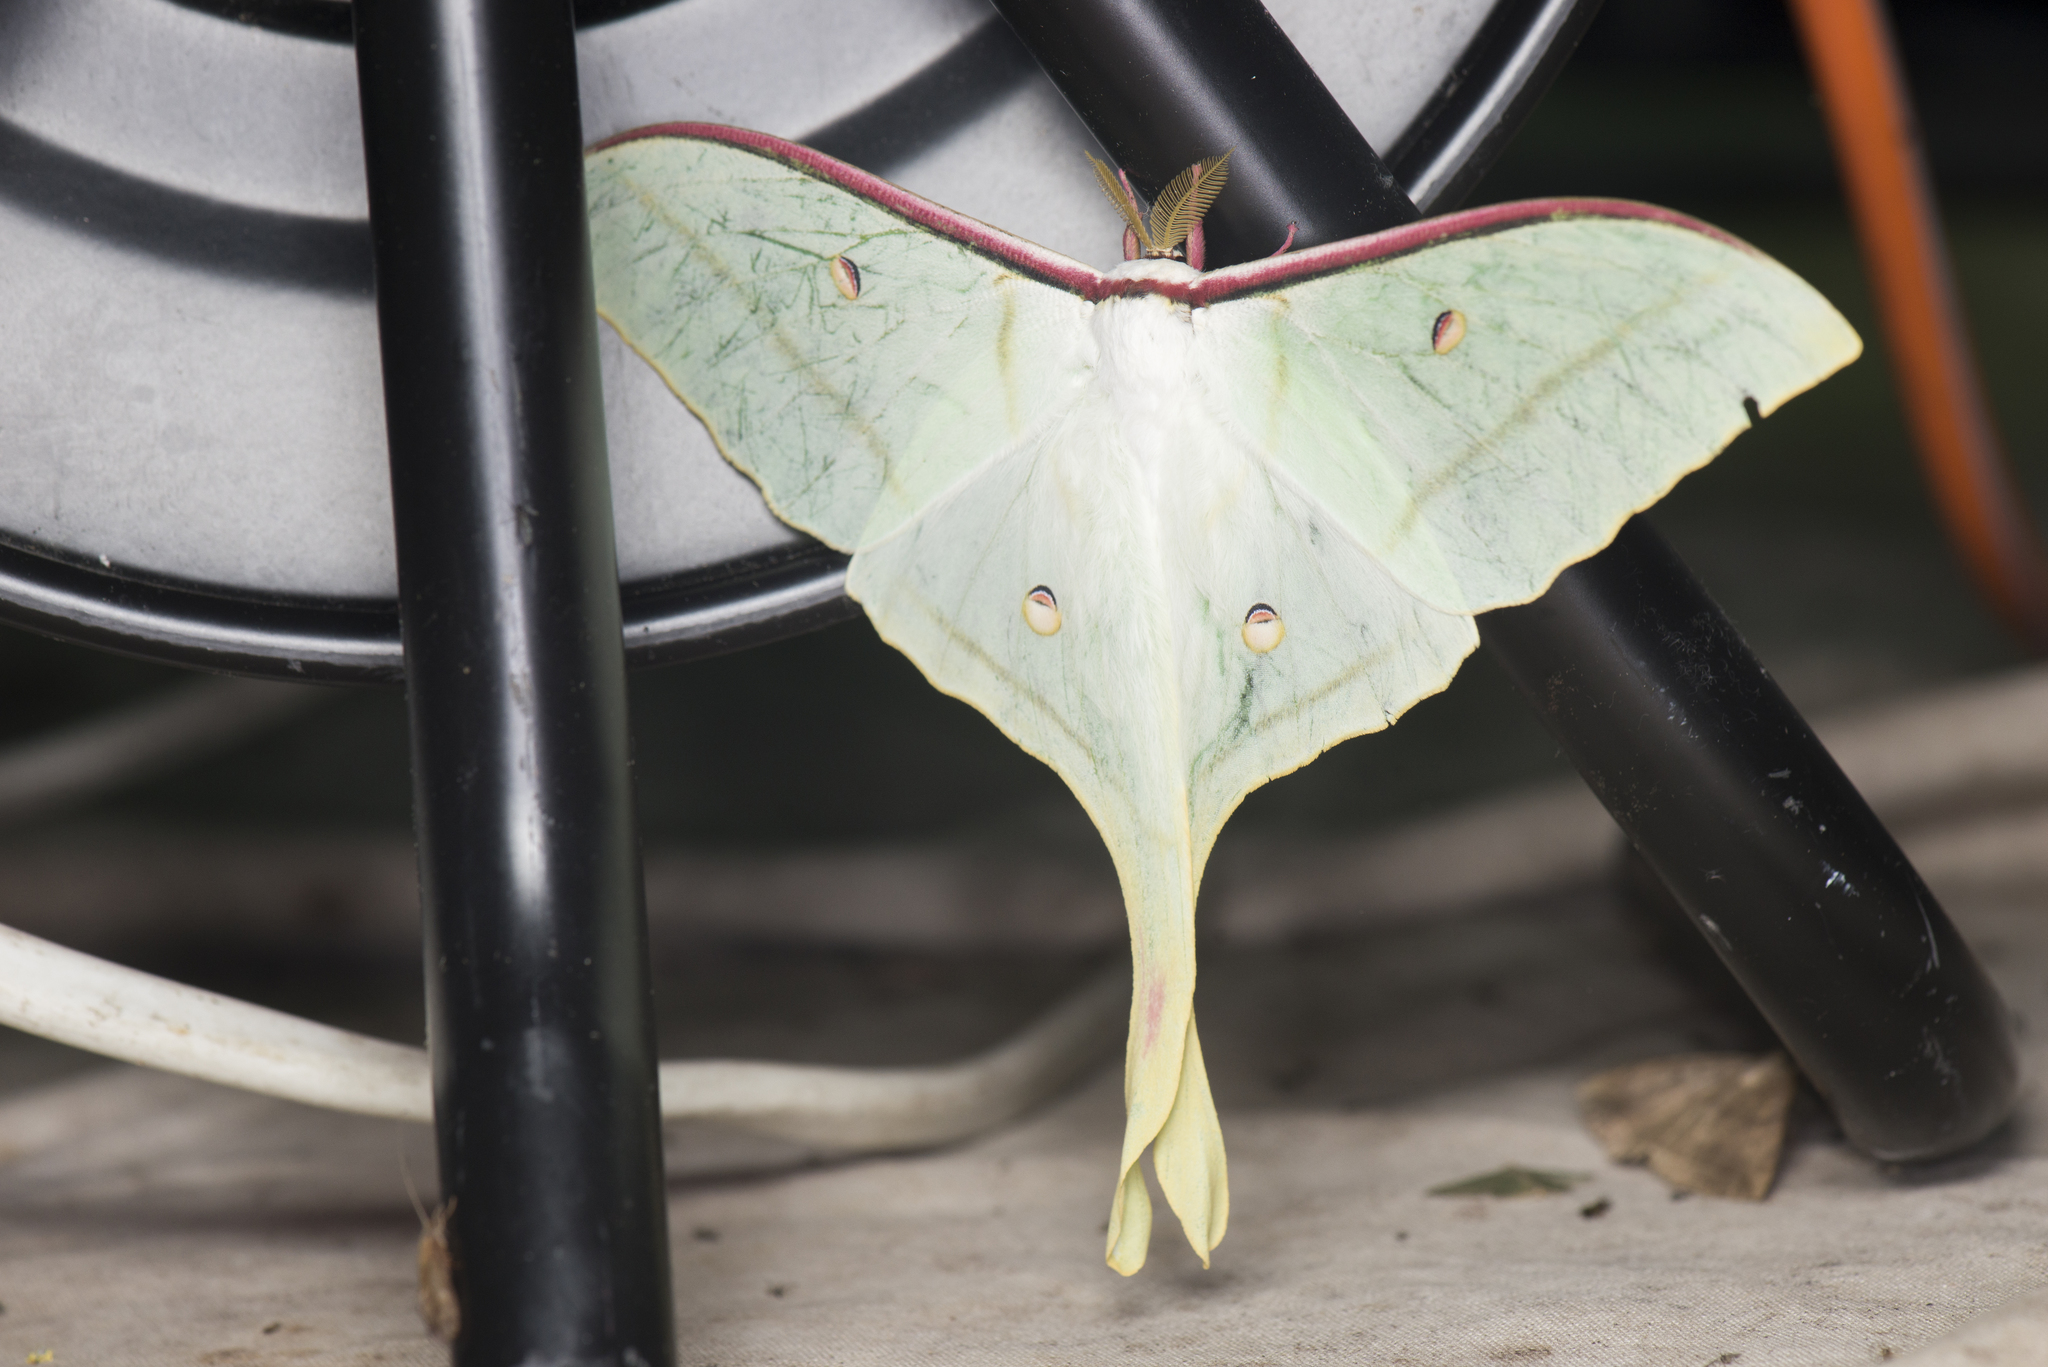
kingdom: Animalia
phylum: Arthropoda
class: Insecta
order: Lepidoptera
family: Saturniidae
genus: Actias
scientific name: Actias ningpoana
